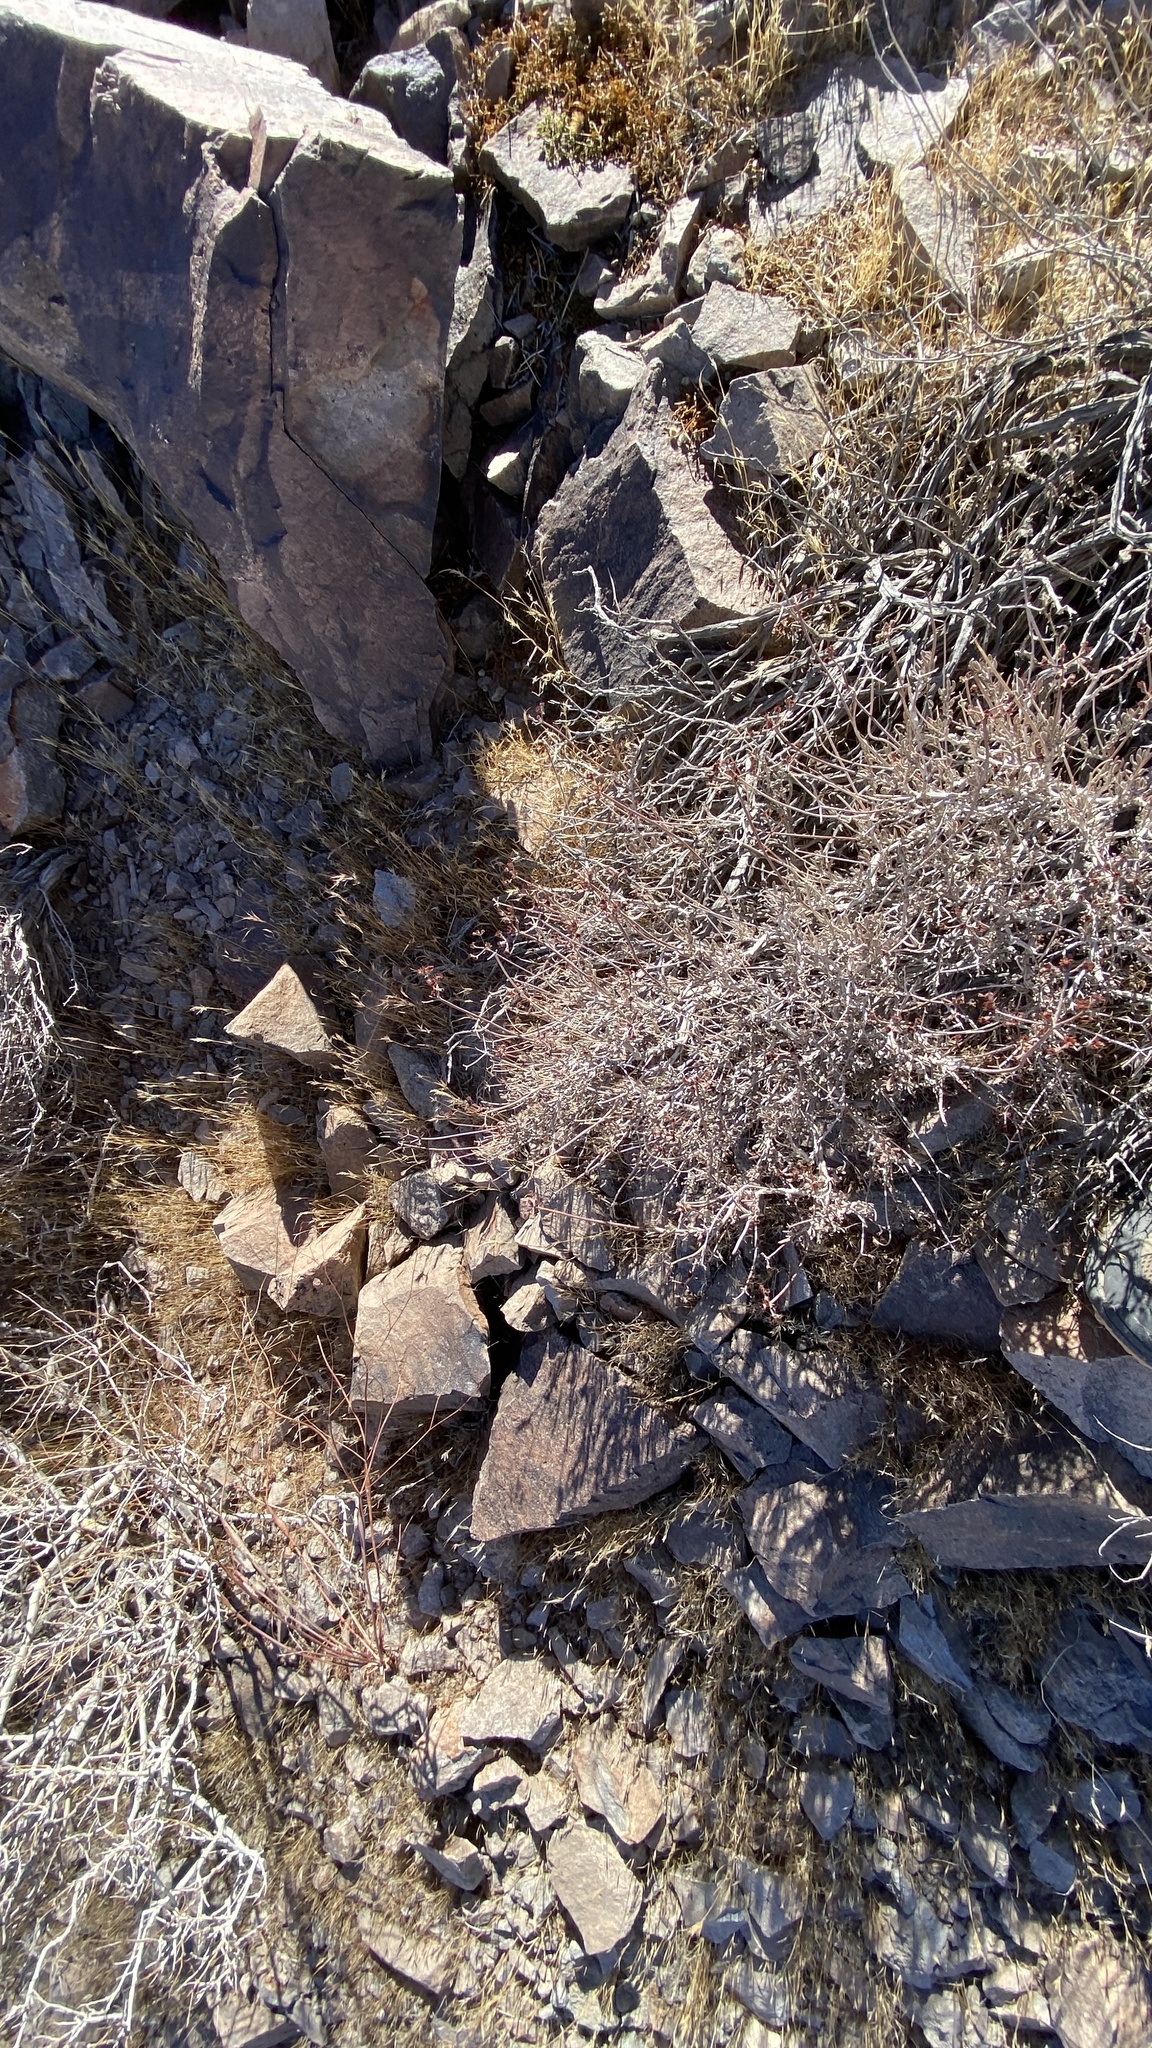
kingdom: Plantae
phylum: Tracheophyta
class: Magnoliopsida
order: Caryophyllales
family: Polygonaceae
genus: Eriogonum
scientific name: Eriogonum fasciculatum
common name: California wild buckwheat
